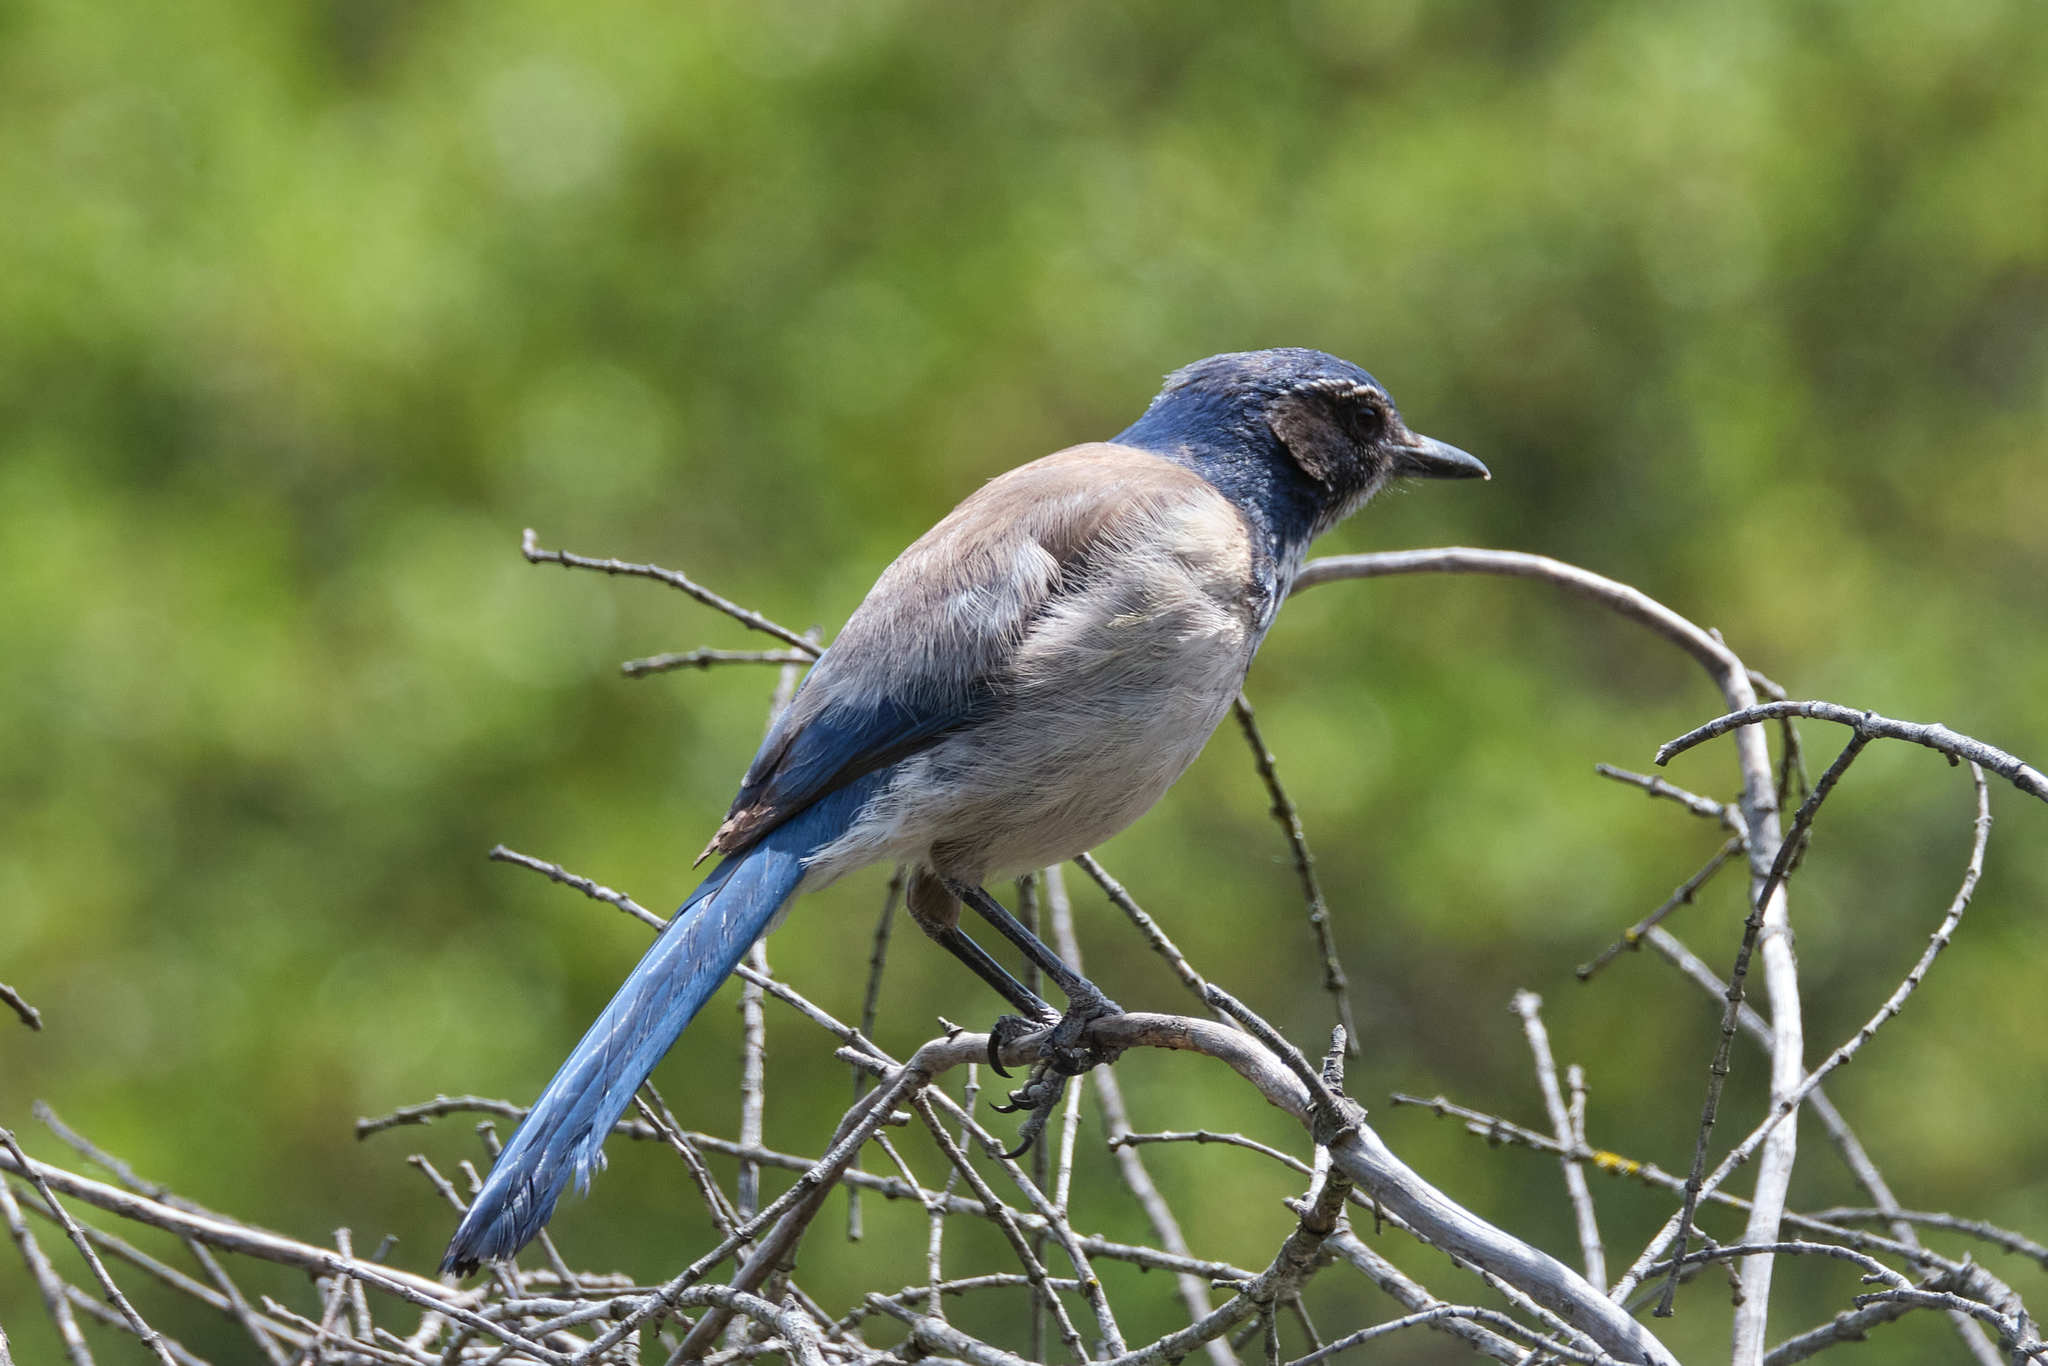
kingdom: Animalia
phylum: Chordata
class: Aves
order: Passeriformes
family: Corvidae
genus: Aphelocoma
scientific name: Aphelocoma californica
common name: California scrub-jay
